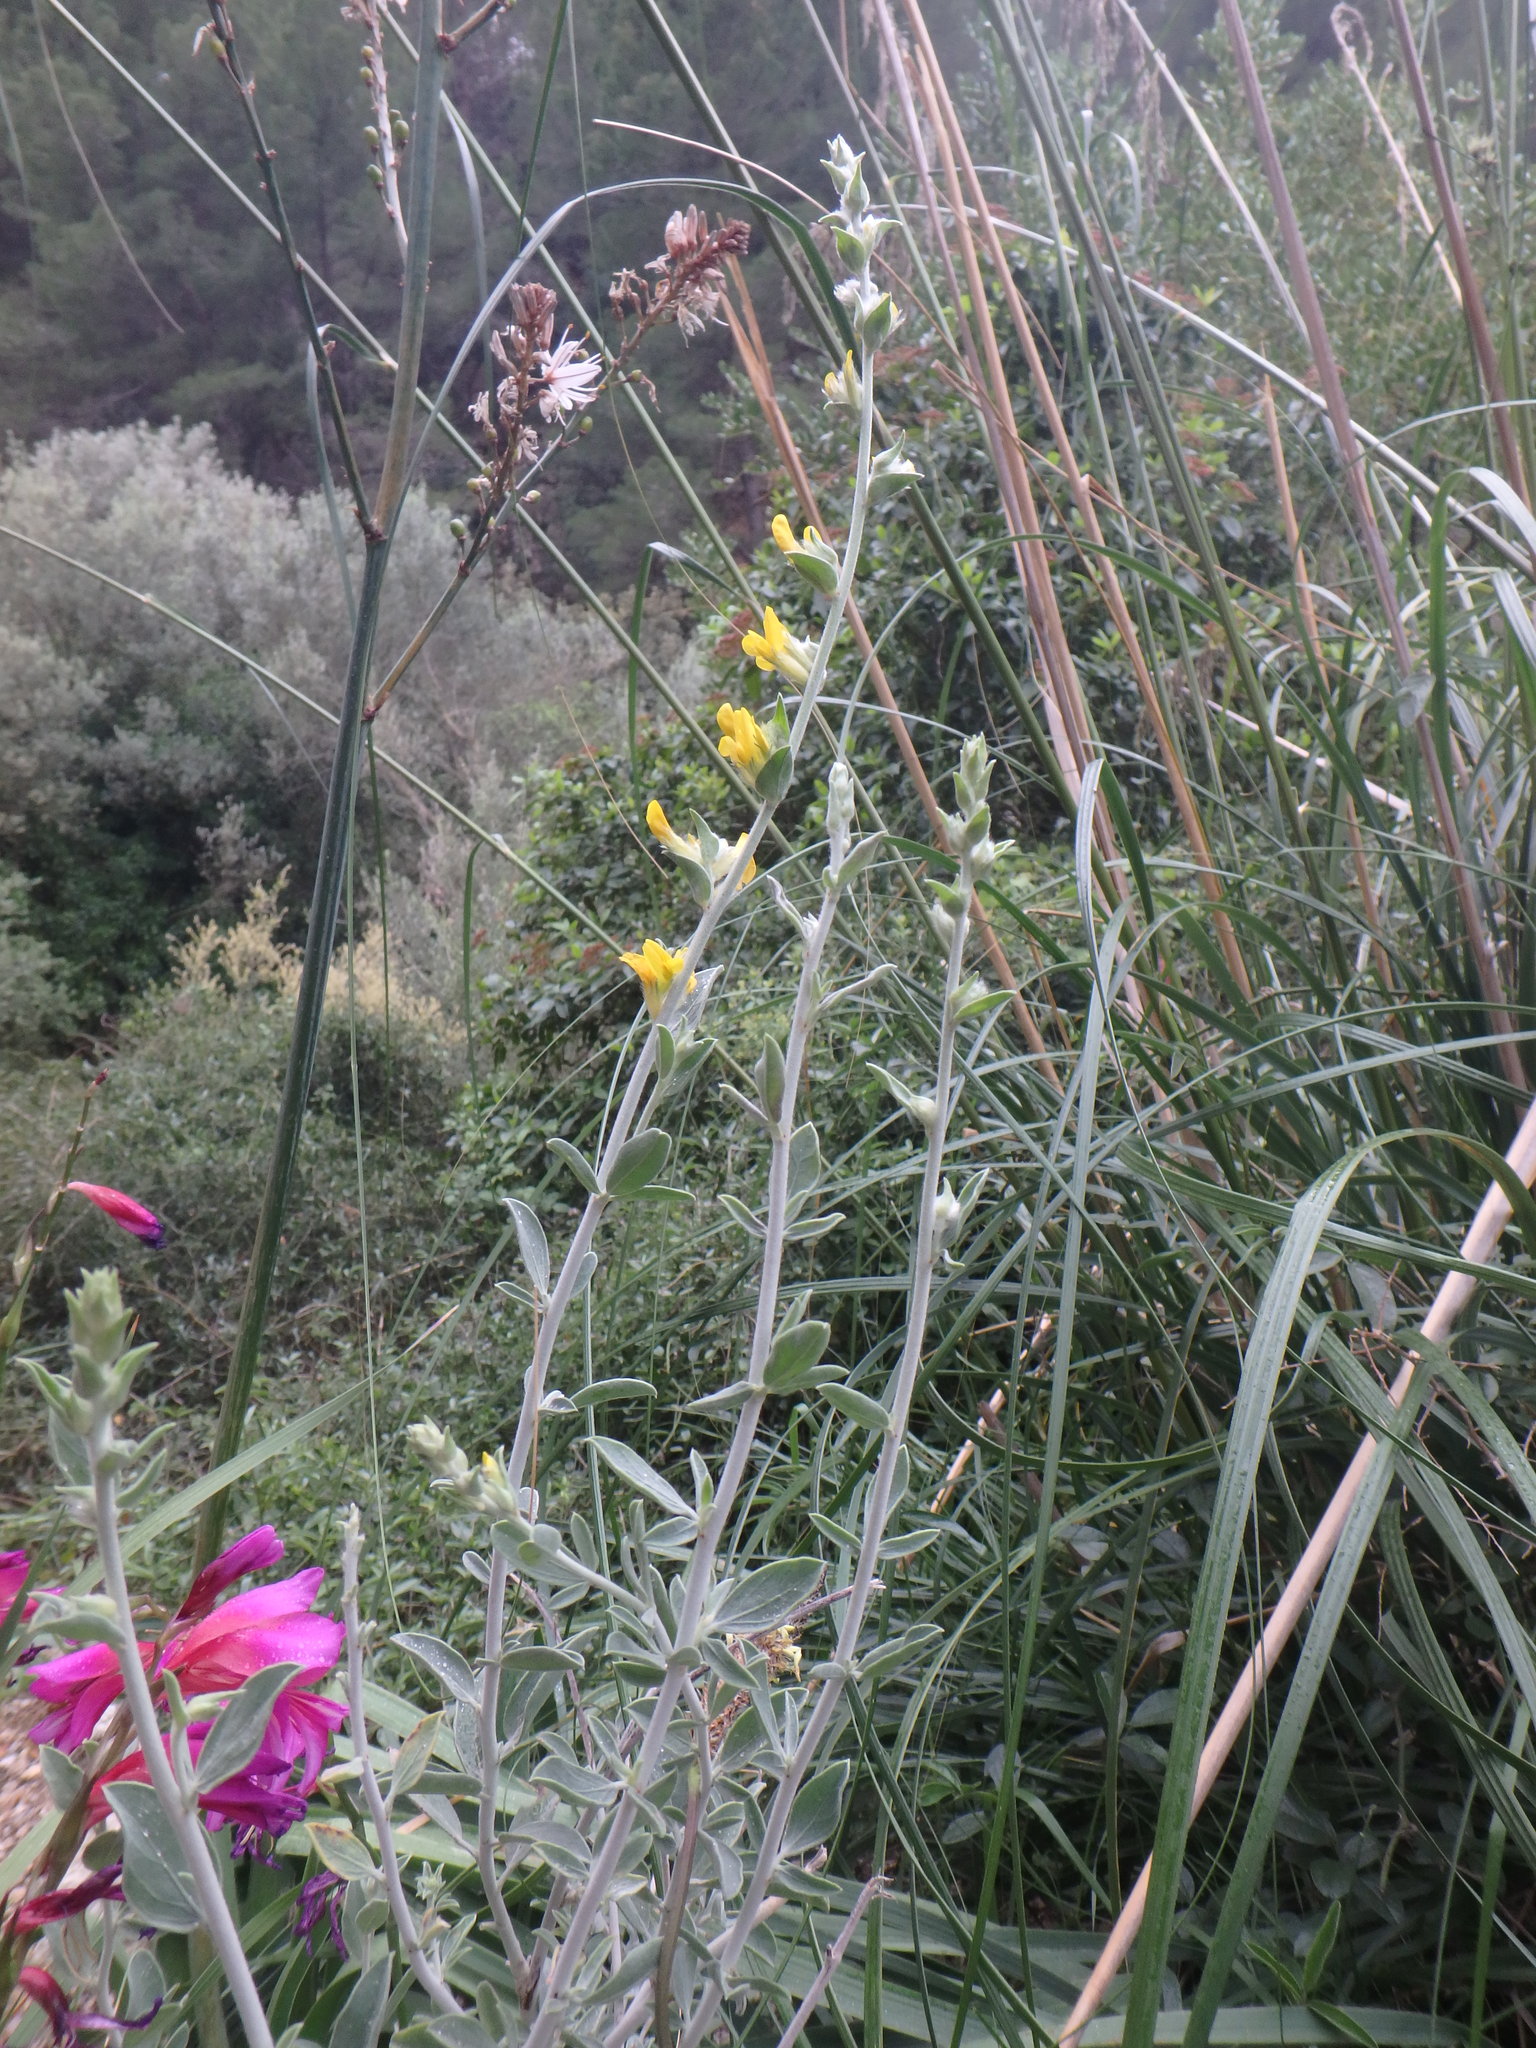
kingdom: Plantae
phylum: Tracheophyta
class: Magnoliopsida
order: Fabales
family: Fabaceae
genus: Anthyllis
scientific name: Anthyllis cytisoides
